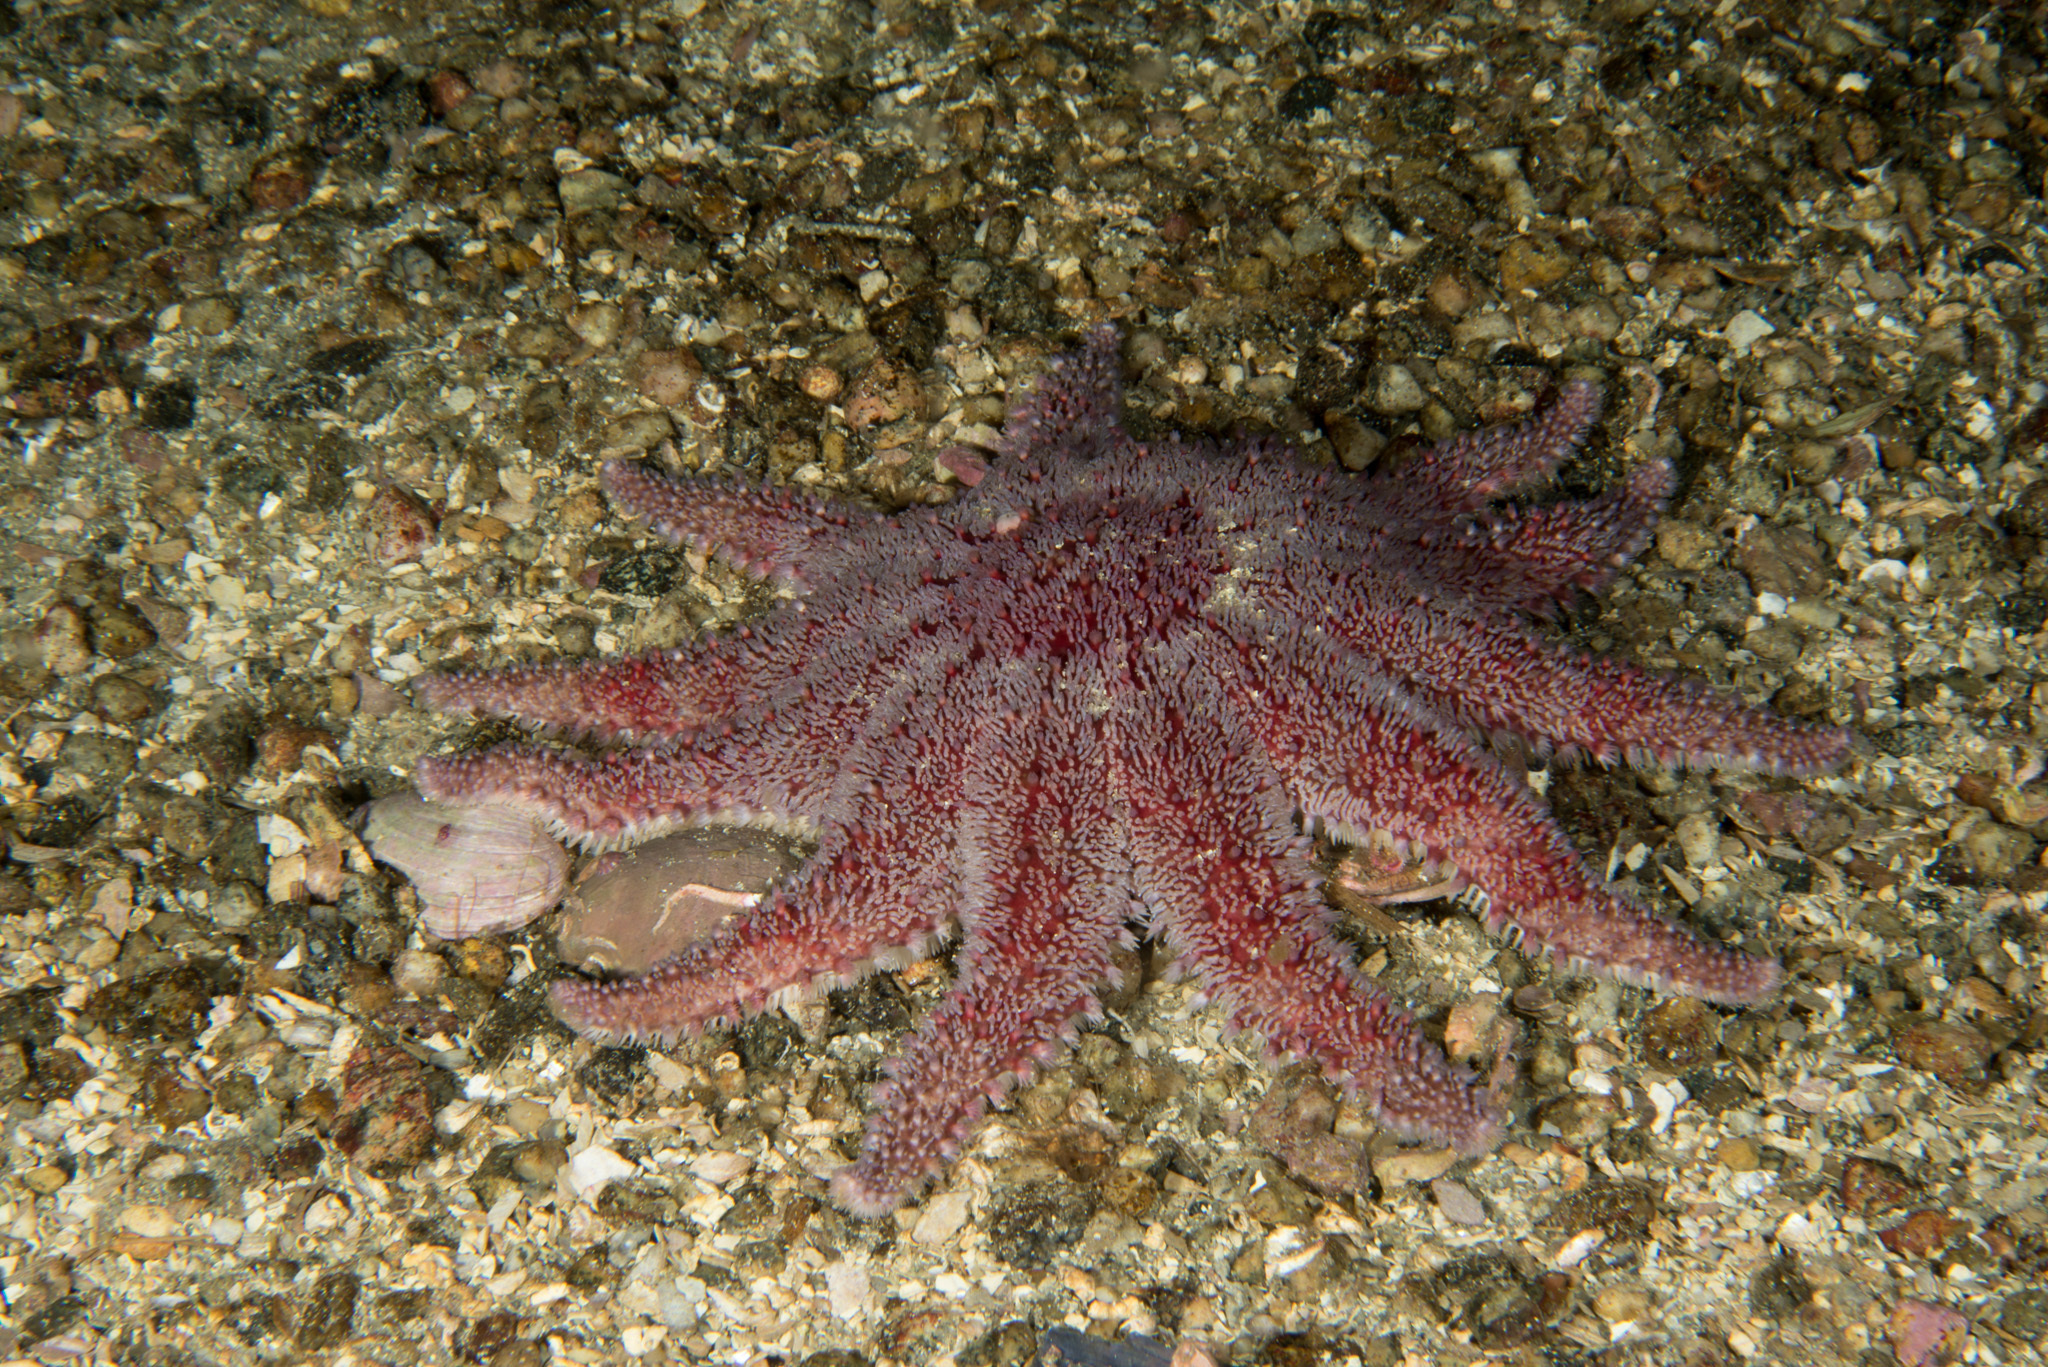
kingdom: Animalia
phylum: Echinodermata
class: Asteroidea
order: Valvatida
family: Solasteridae
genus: Crossaster
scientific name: Crossaster papposus
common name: Common sun star
